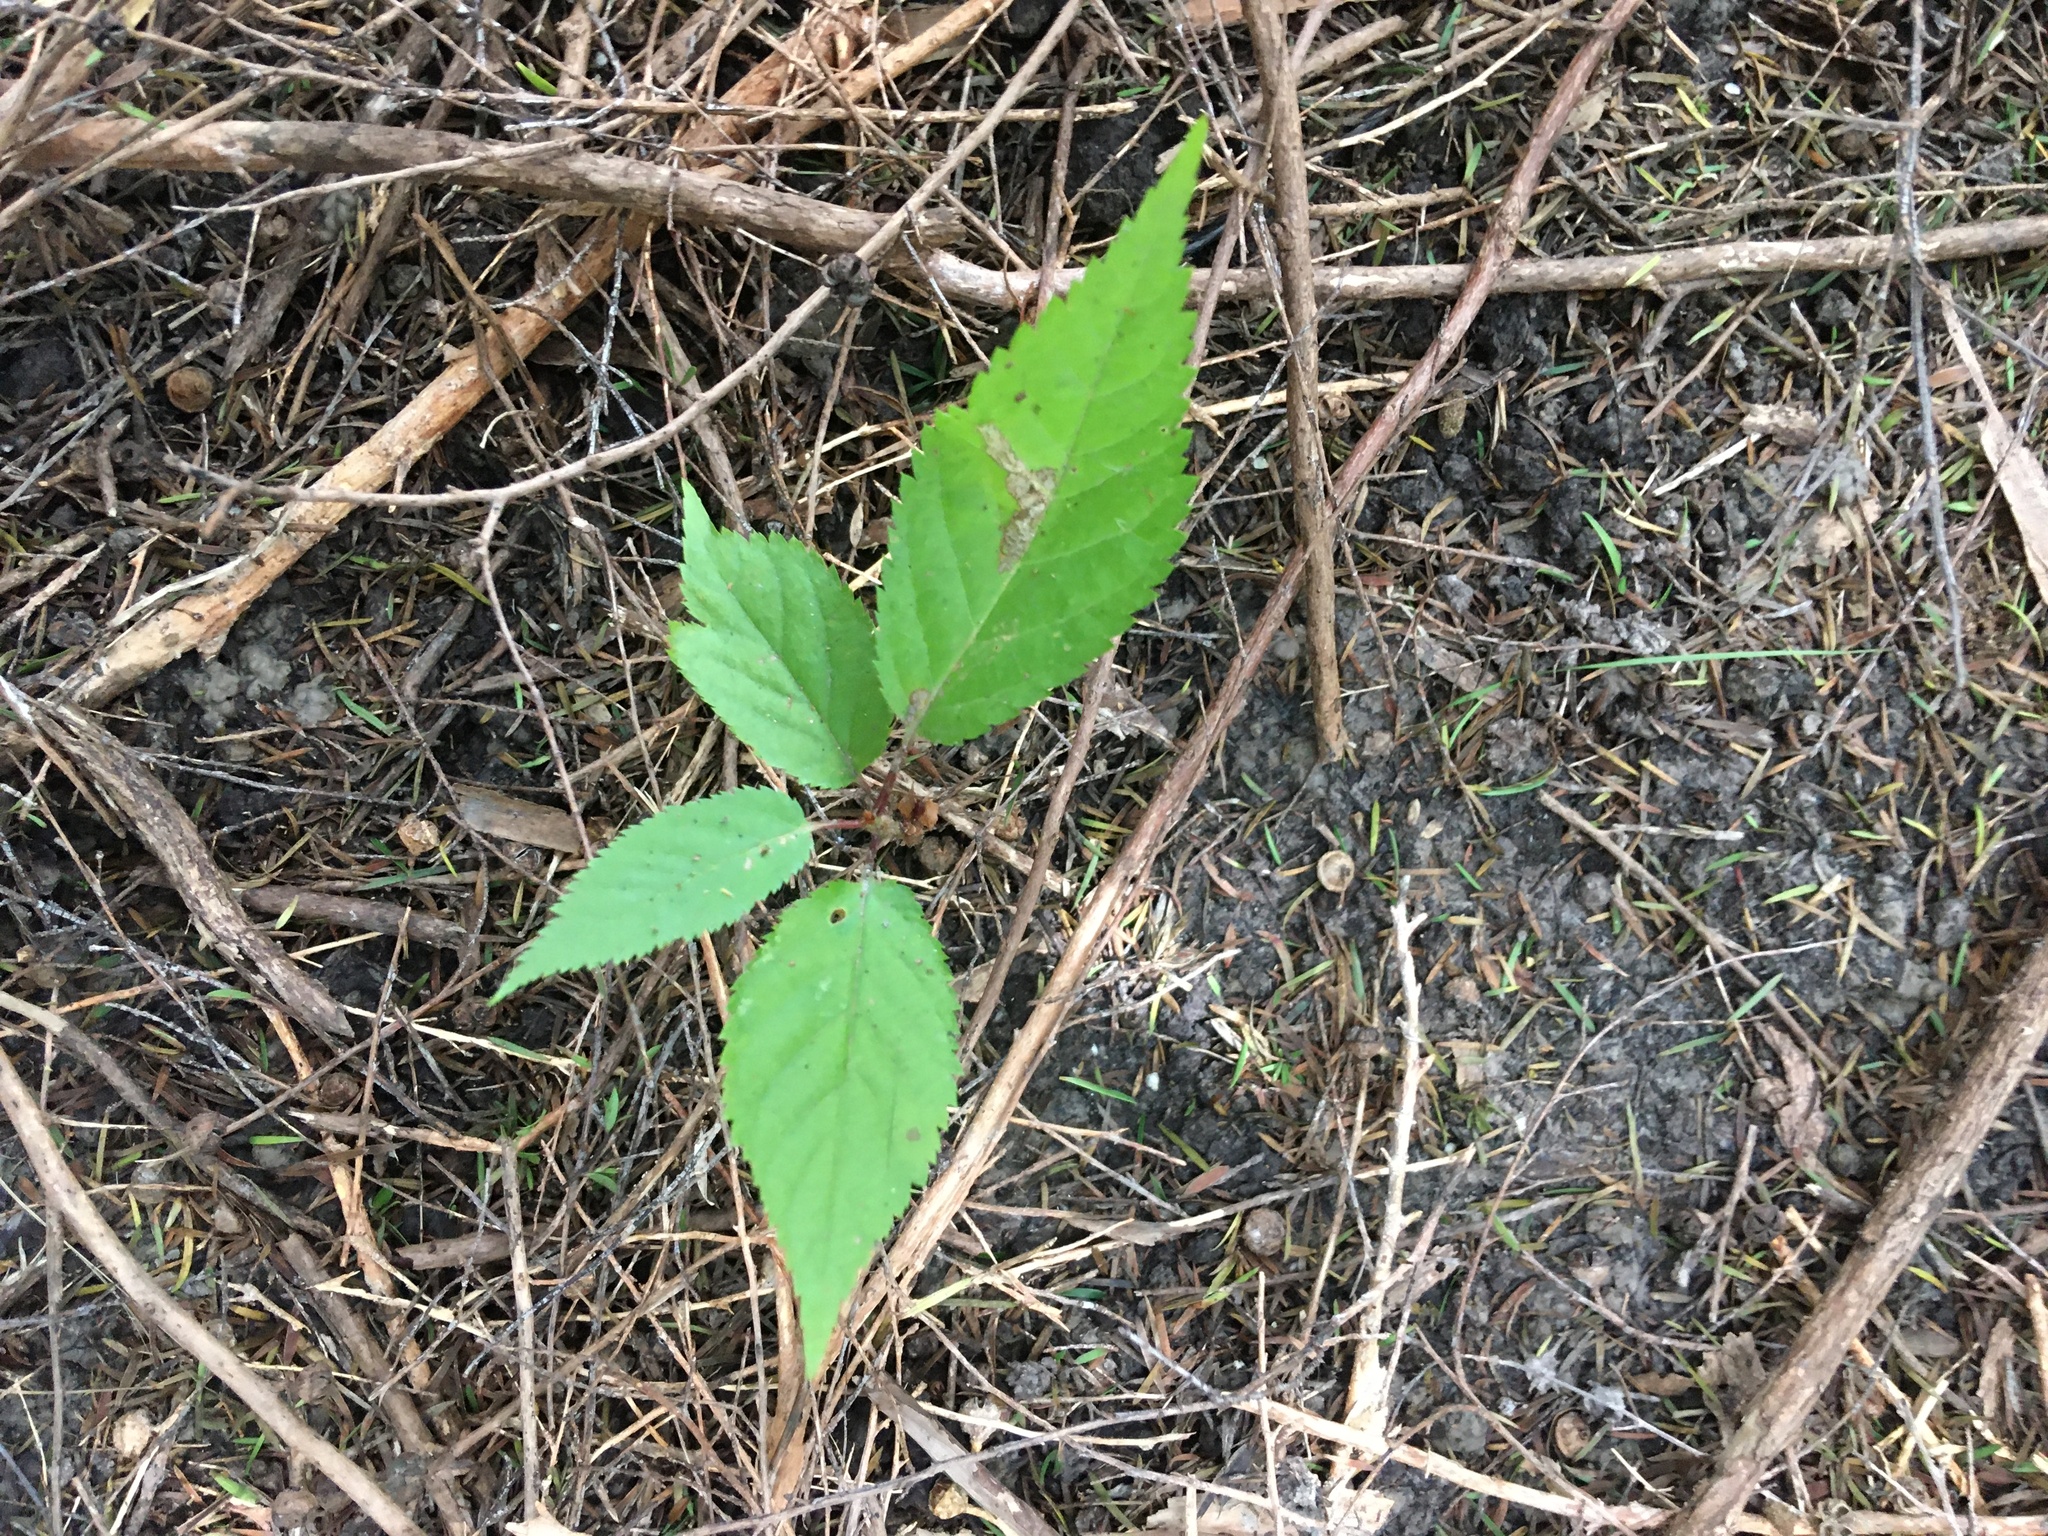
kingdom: Plantae
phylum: Tracheophyta
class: Magnoliopsida
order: Rosales
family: Rosaceae
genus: Prunus
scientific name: Prunus serrulata
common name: Japanese cherry
